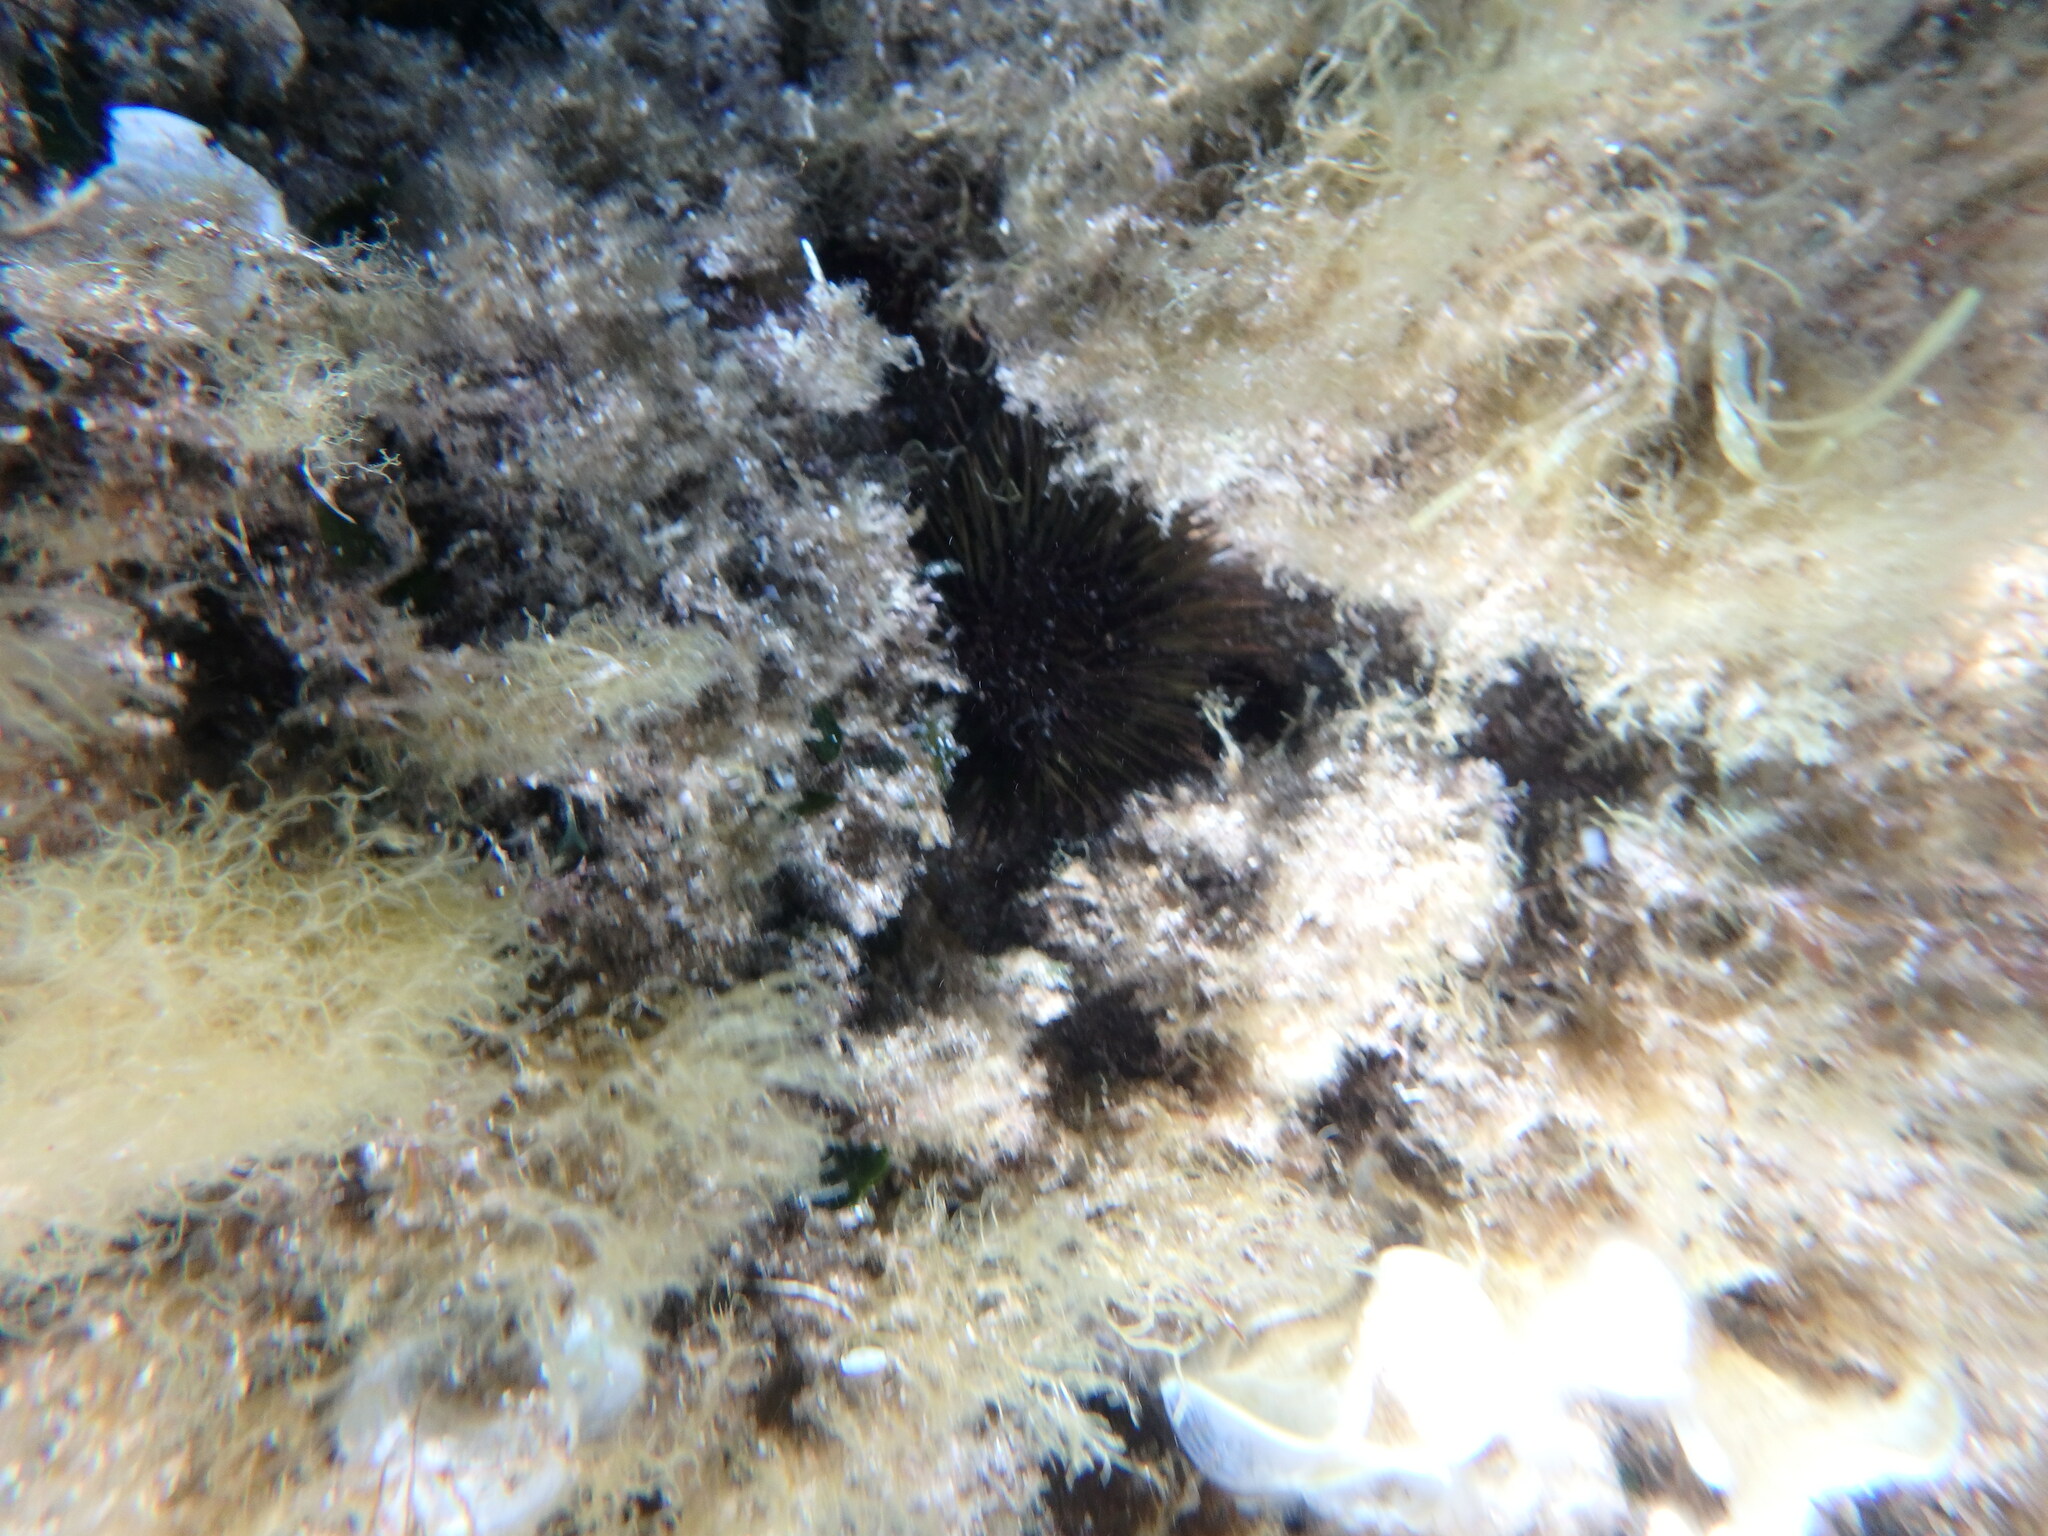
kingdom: Animalia
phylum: Echinodermata
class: Echinoidea
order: Camarodonta
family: Parechinidae
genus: Paracentrotus
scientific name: Paracentrotus lividus
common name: Purple sea urchin
